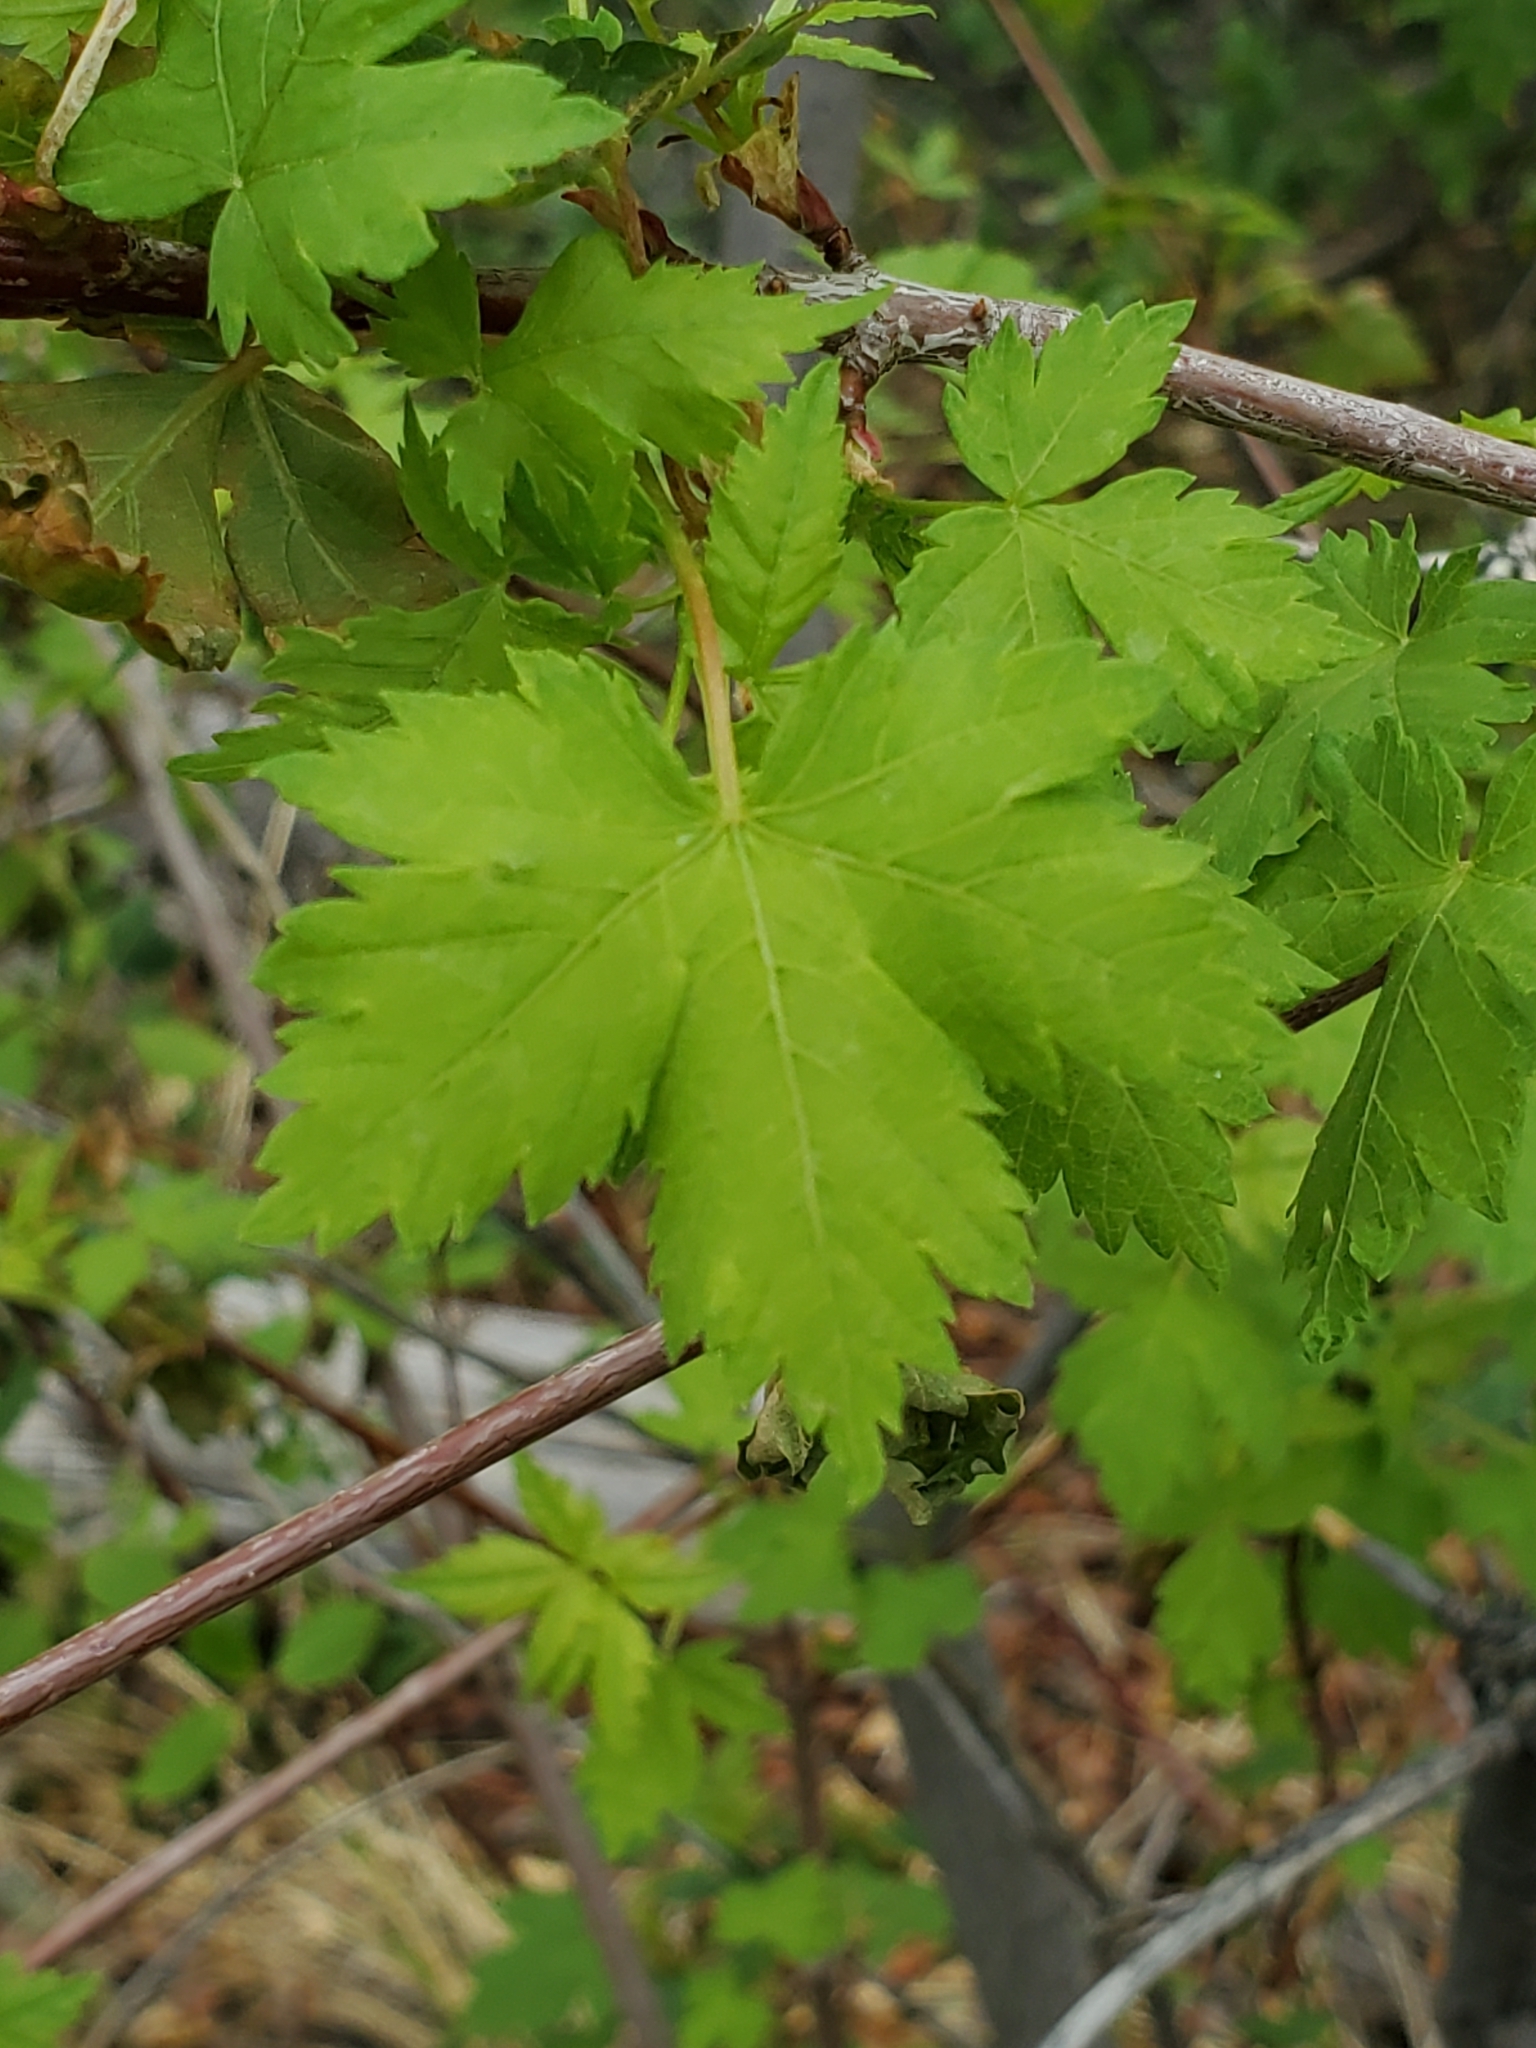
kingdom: Plantae
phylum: Tracheophyta
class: Magnoliopsida
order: Sapindales
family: Sapindaceae
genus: Acer
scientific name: Acer glabrum
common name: Rocky mountain maple
